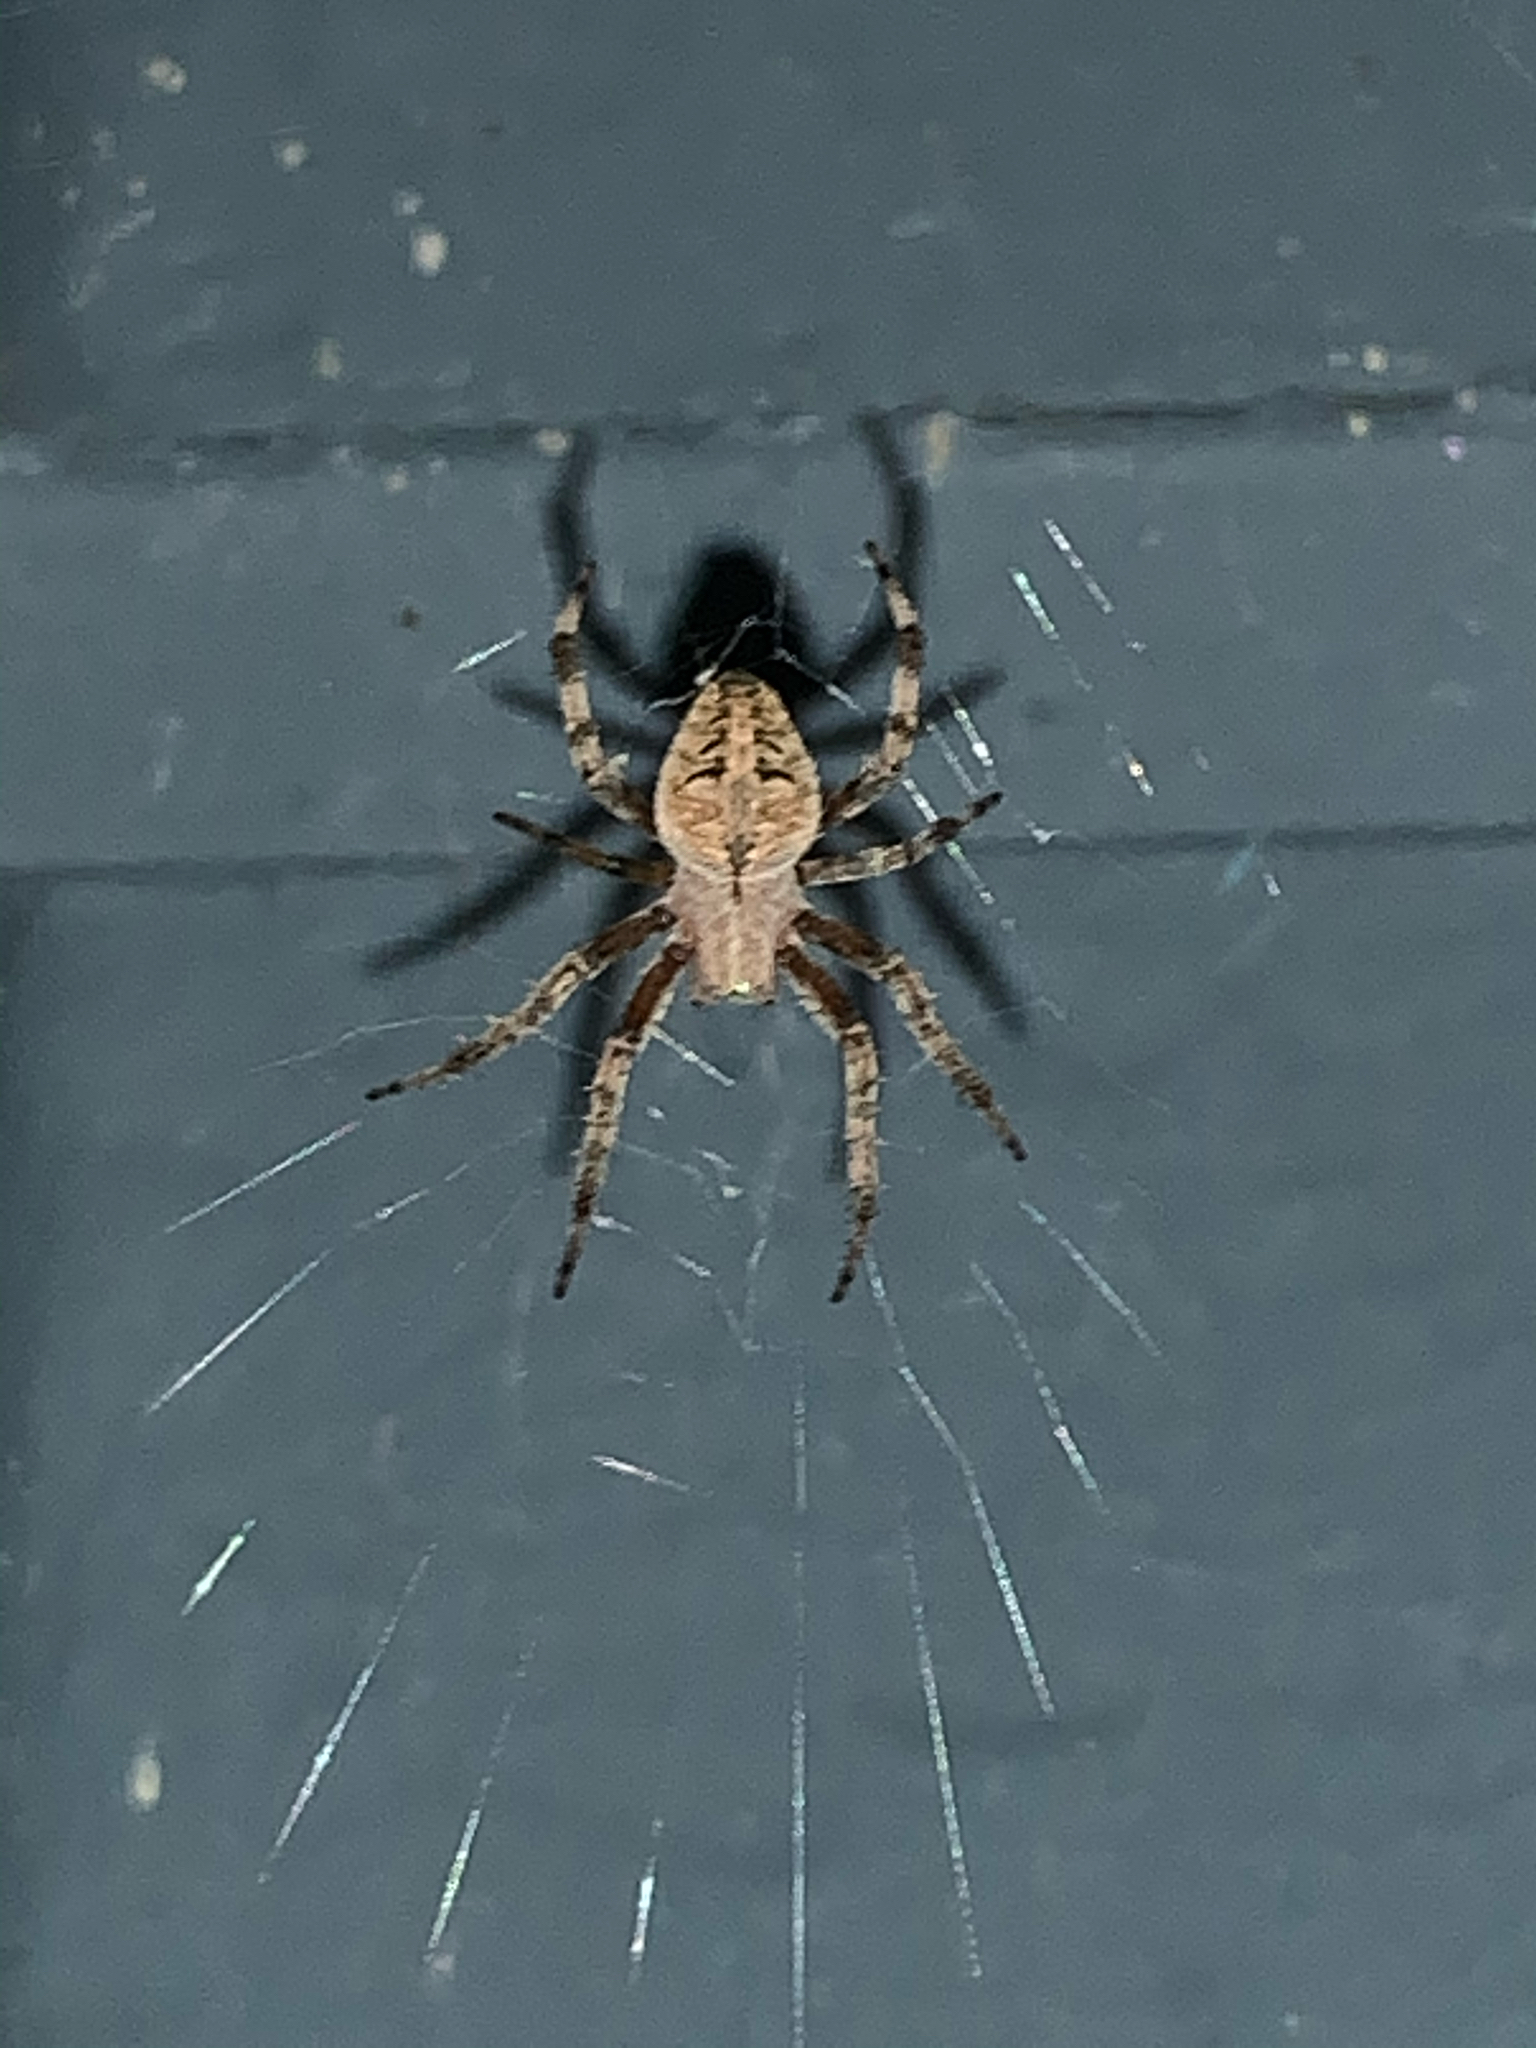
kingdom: Animalia
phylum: Arthropoda
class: Arachnida
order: Araneae
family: Araneidae
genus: Neoscona
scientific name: Neoscona arabesca
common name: Orb weavers
